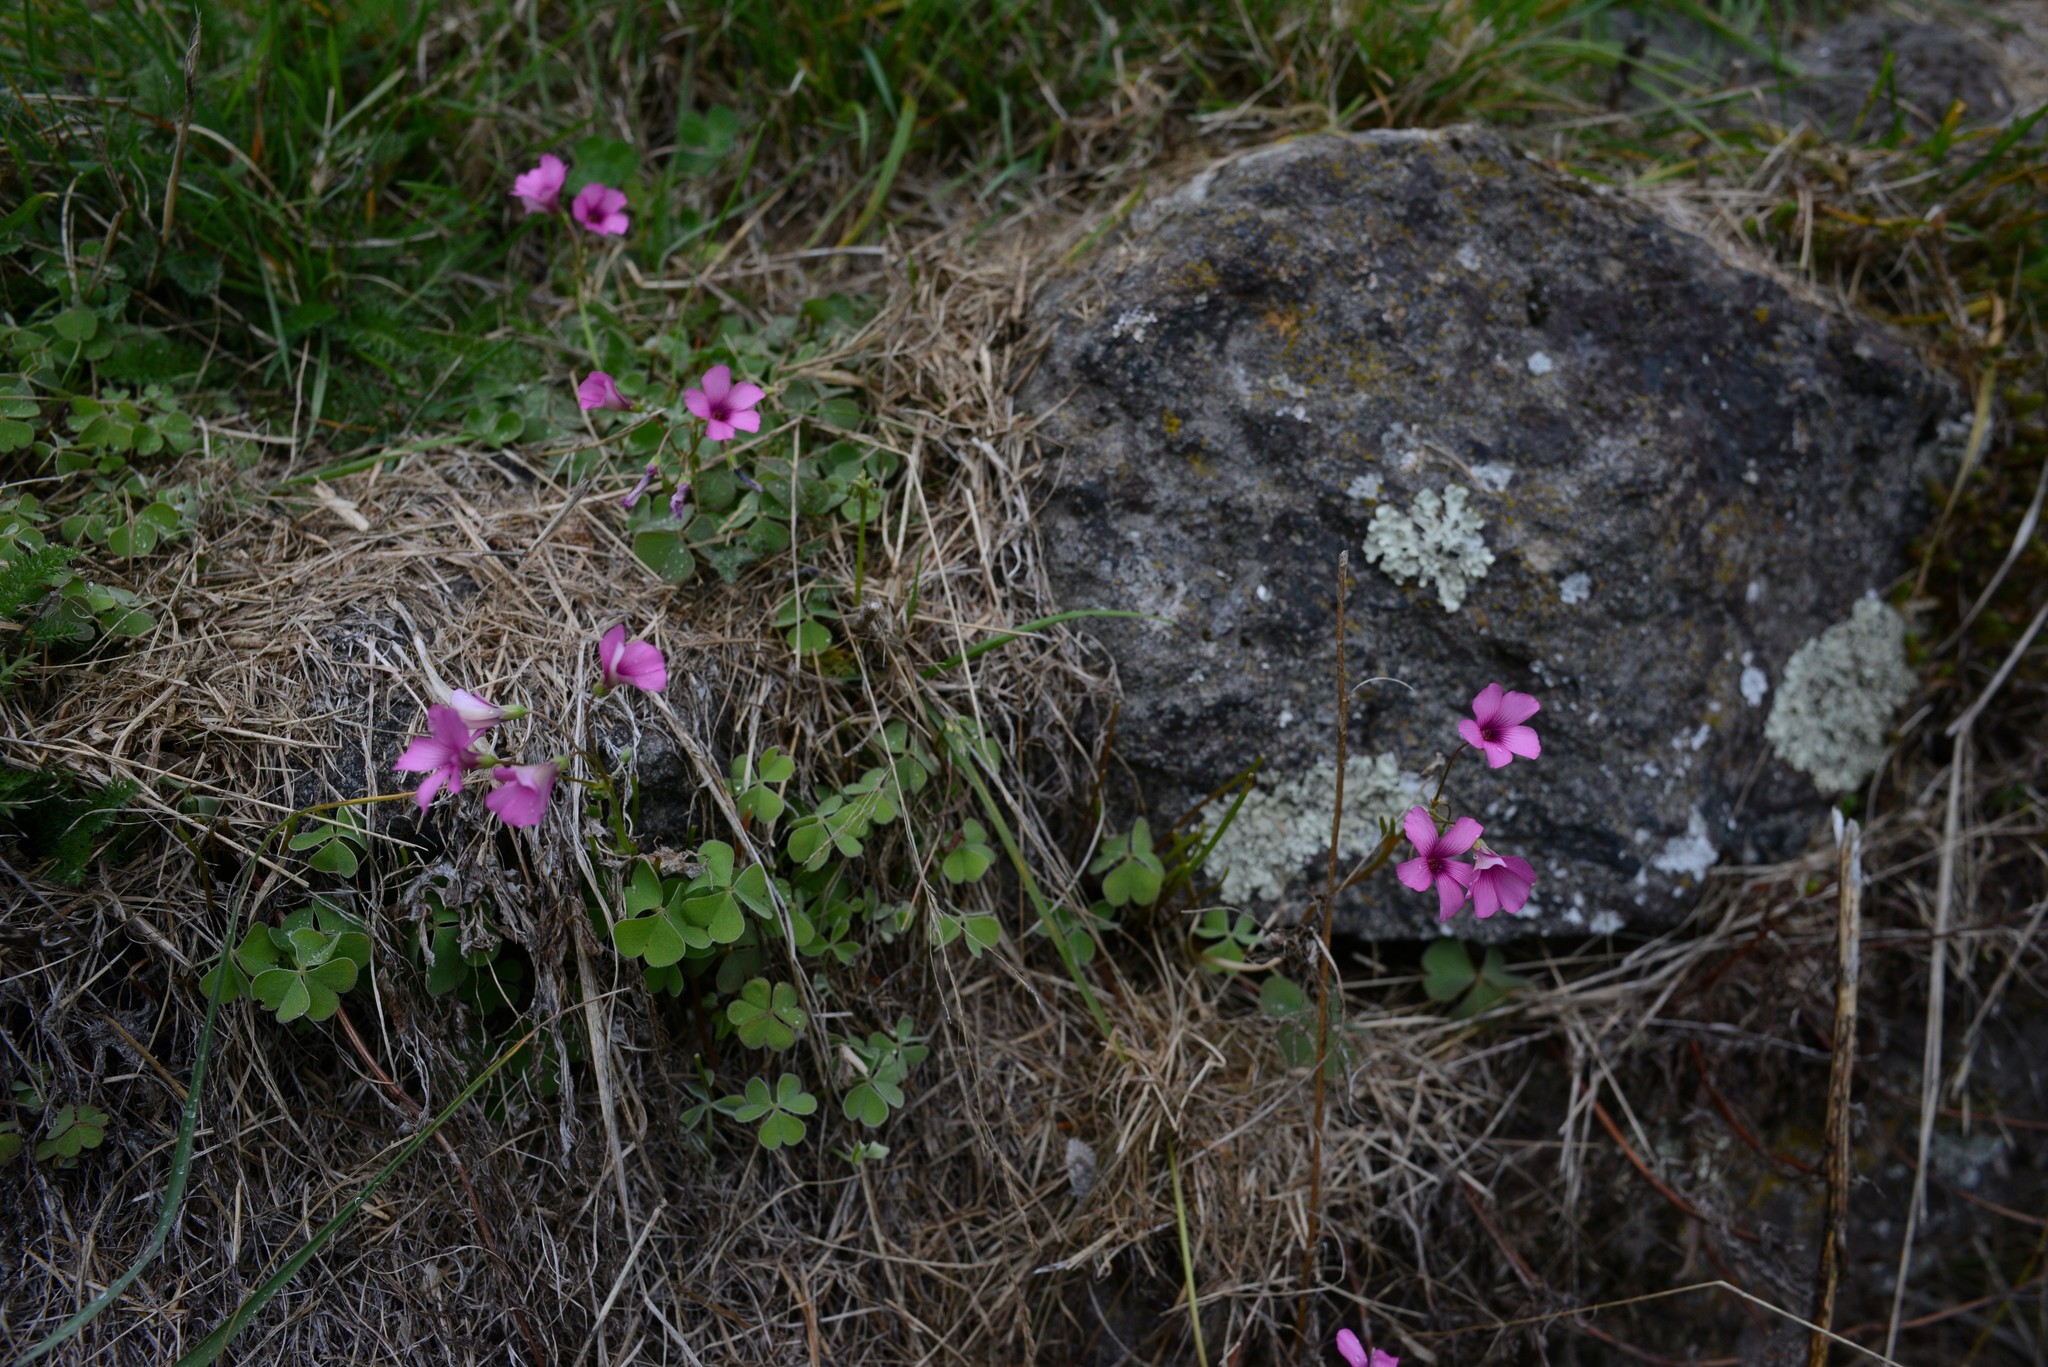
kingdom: Plantae
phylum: Tracheophyta
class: Magnoliopsida
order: Oxalidales
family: Oxalidaceae
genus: Oxalis
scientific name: Oxalis articulata
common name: Pink-sorrel
